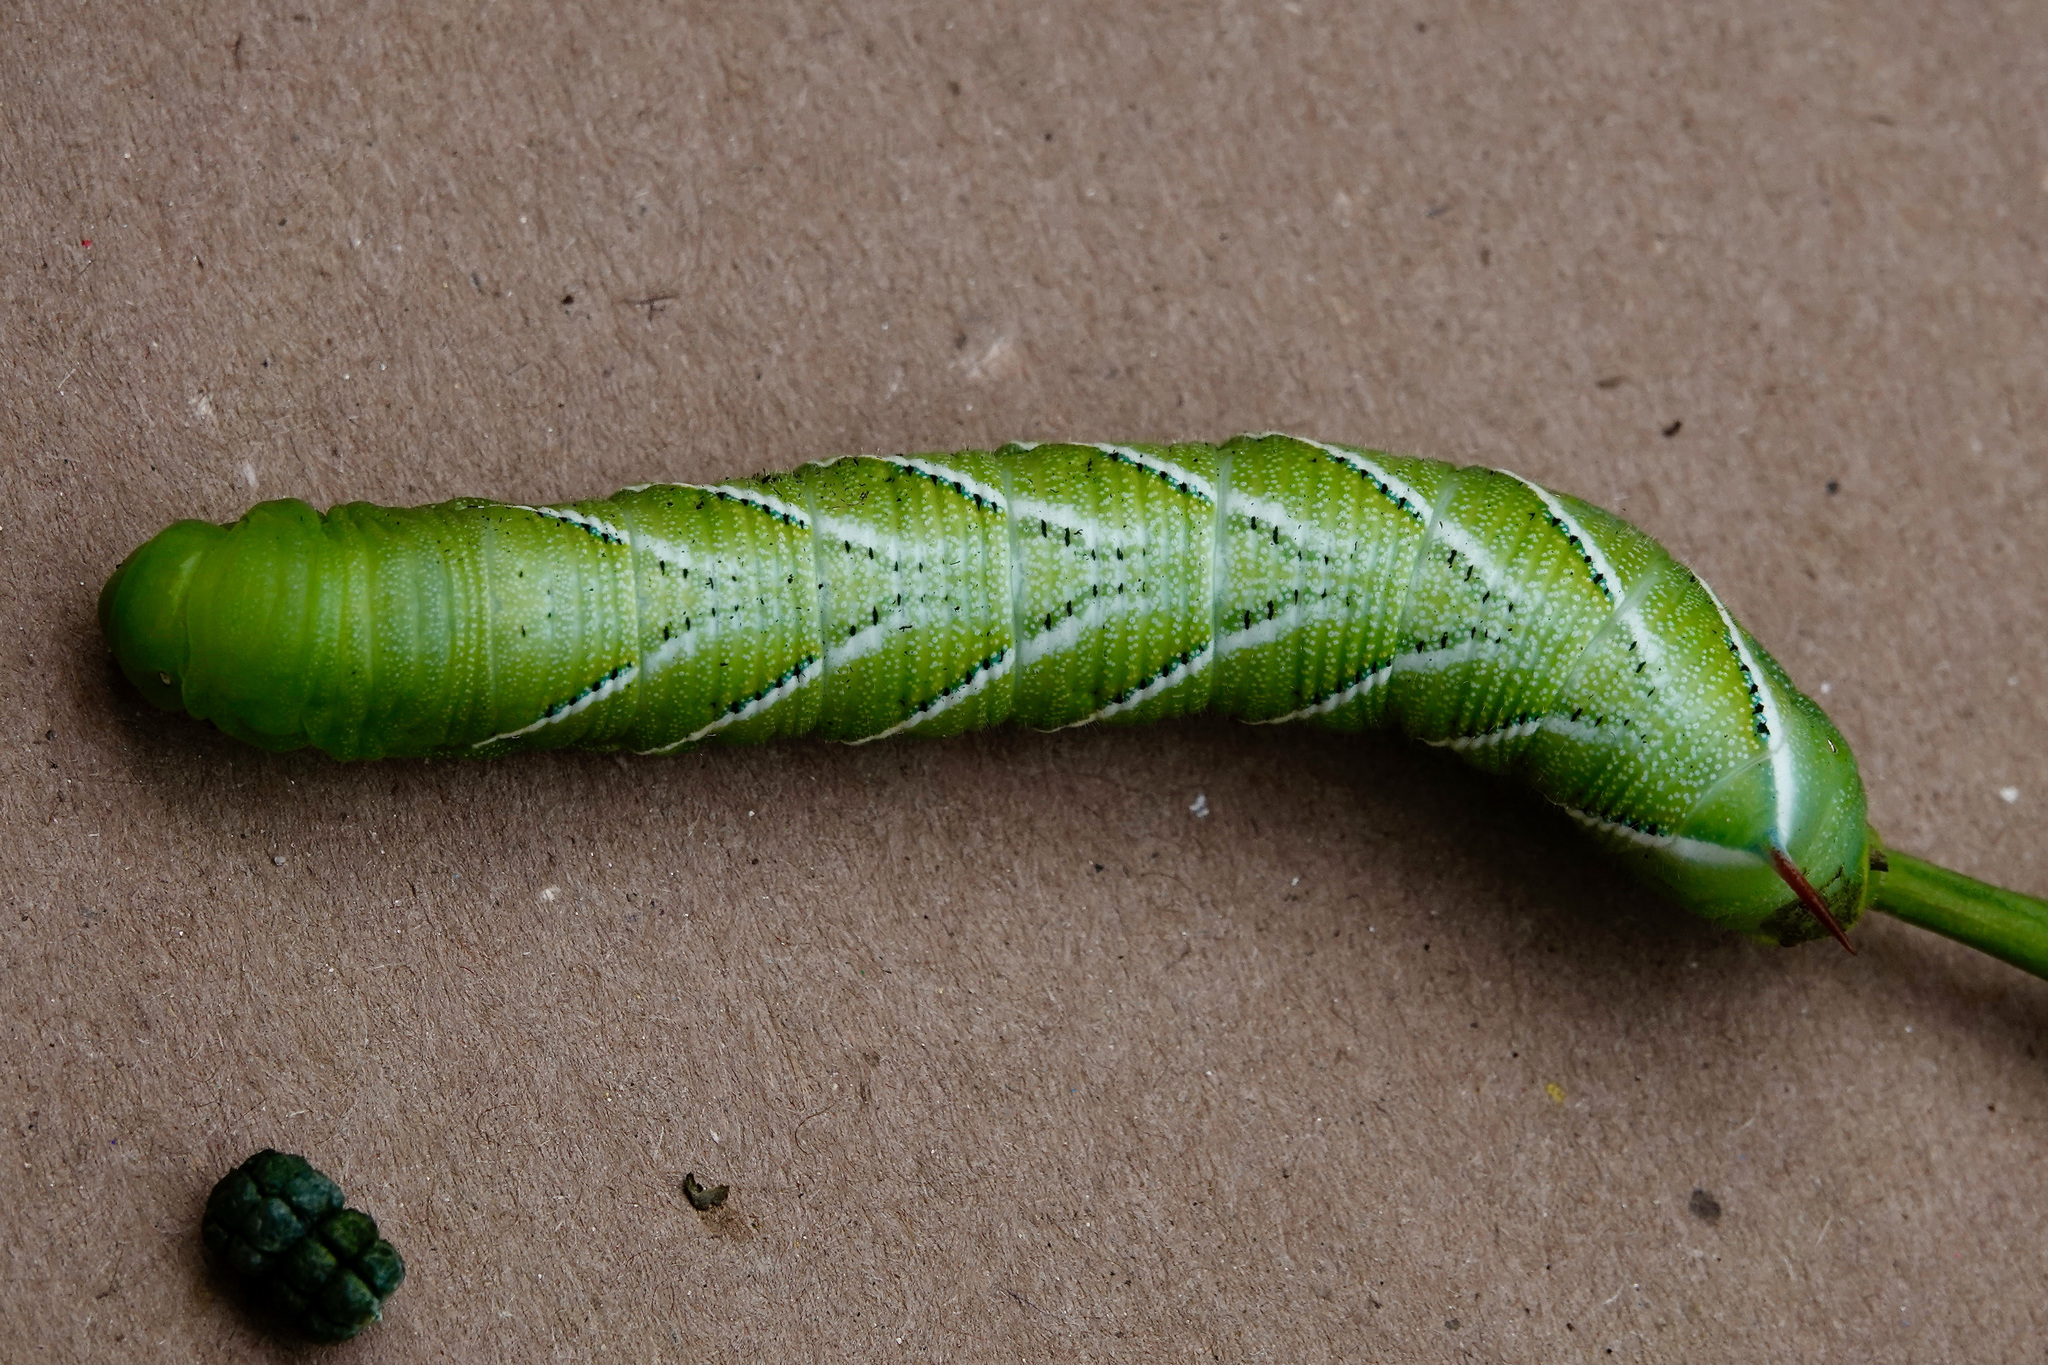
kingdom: Animalia
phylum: Arthropoda
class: Insecta
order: Lepidoptera
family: Sphingidae
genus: Manduca
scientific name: Manduca sexta
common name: Carolina sphinx
